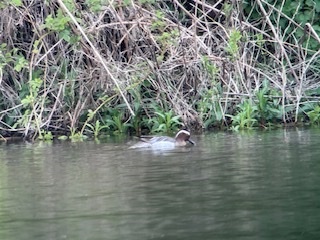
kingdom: Animalia
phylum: Chordata
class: Aves
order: Anseriformes
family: Anatidae
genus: Spatula
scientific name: Spatula querquedula
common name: Garganey
